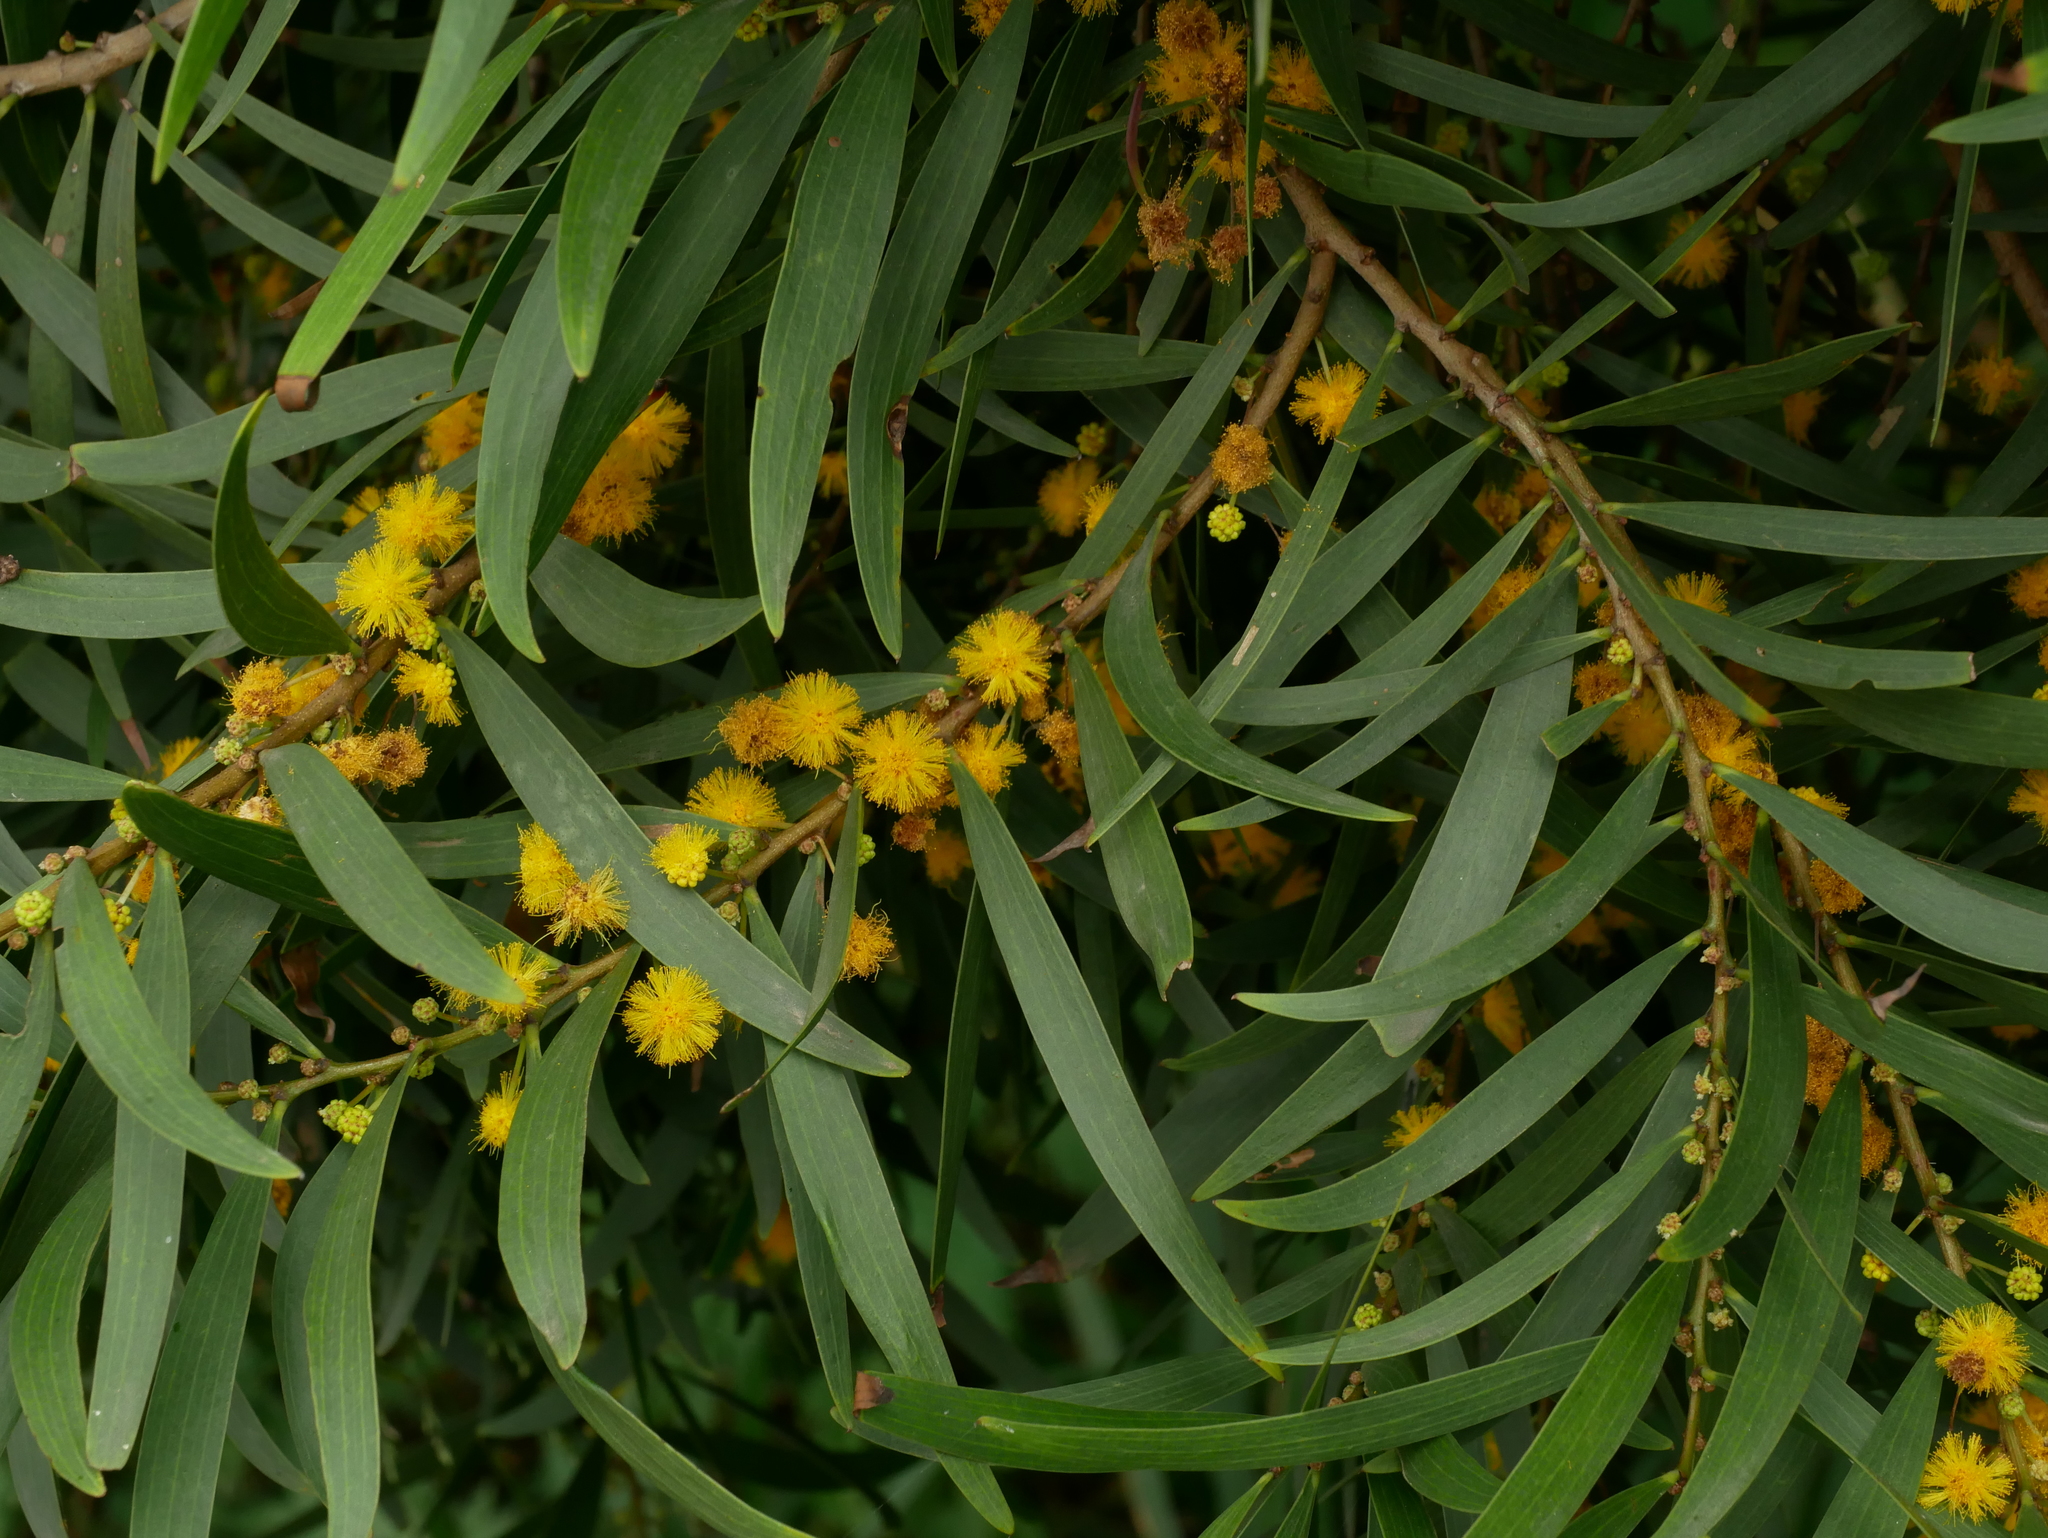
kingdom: Plantae
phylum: Tracheophyta
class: Magnoliopsida
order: Fabales
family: Fabaceae
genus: Acacia
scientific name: Acacia confusa
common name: Formosan koa
